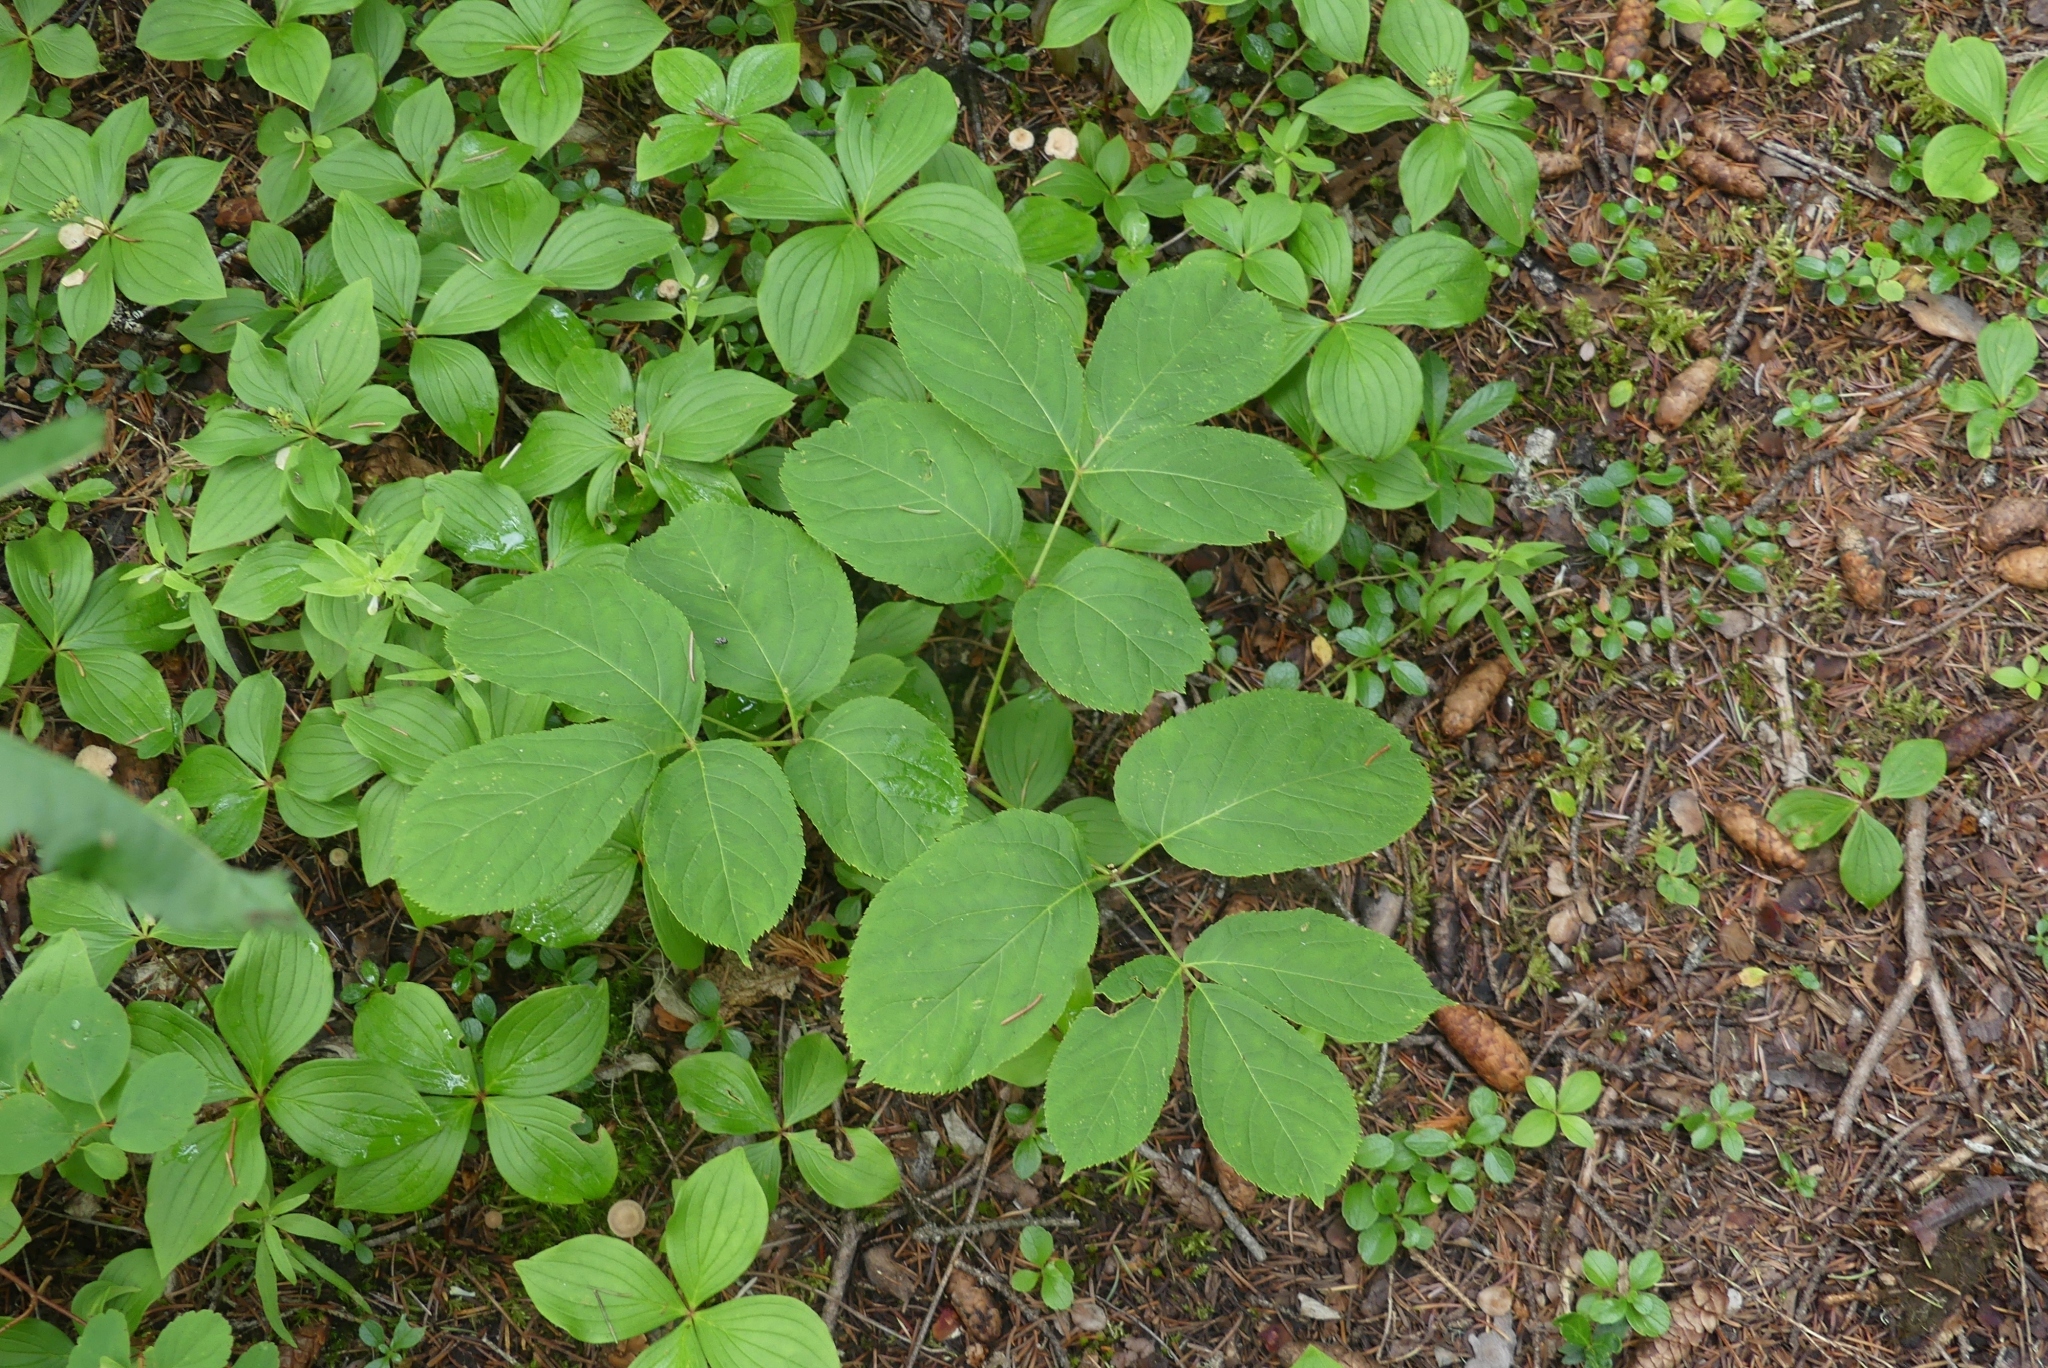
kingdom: Plantae
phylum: Tracheophyta
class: Magnoliopsida
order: Apiales
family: Araliaceae
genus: Aralia
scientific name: Aralia nudicaulis
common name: Wild sarsaparilla
